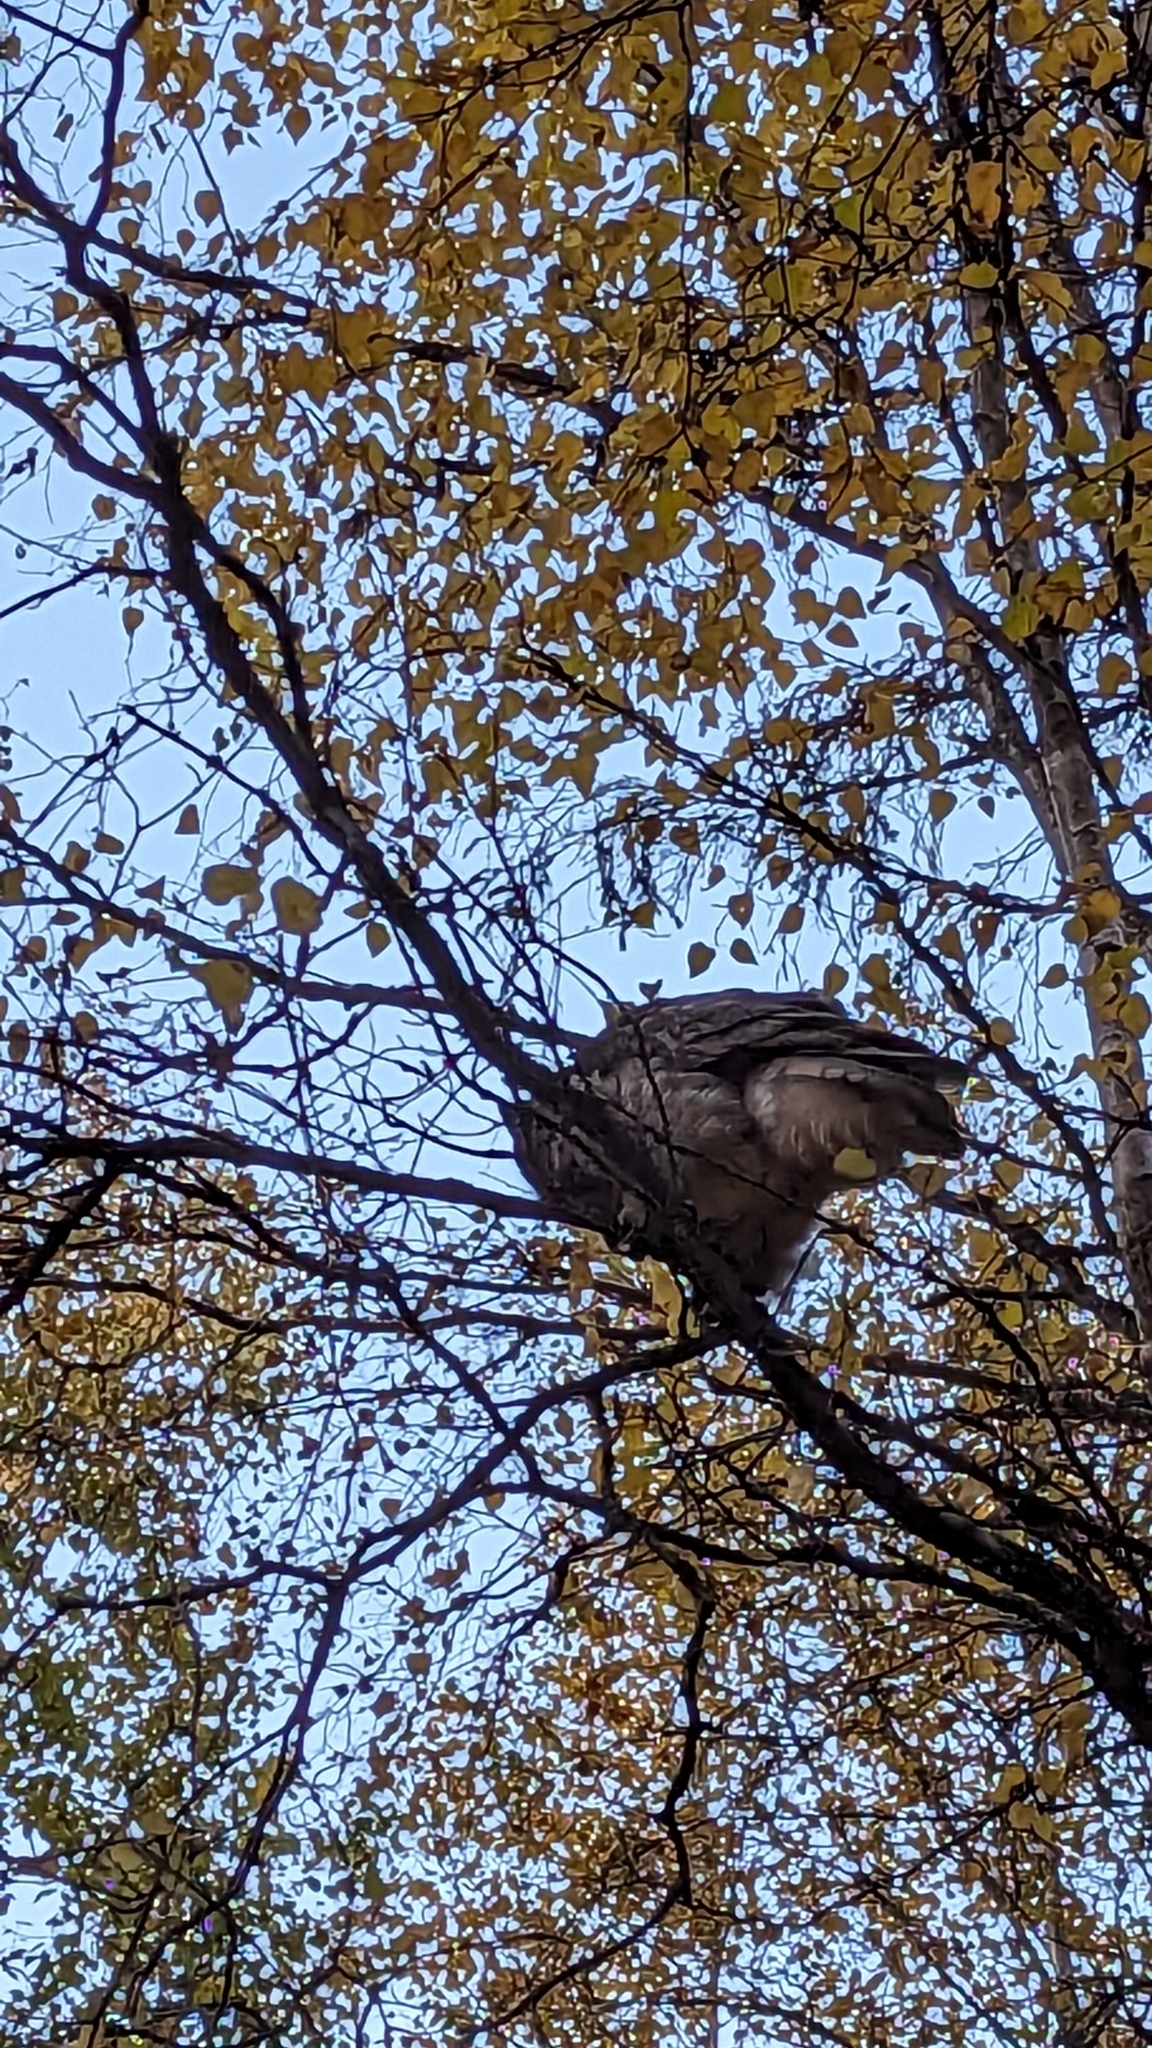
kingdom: Animalia
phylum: Chordata
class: Aves
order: Strigiformes
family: Strigidae
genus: Bubo
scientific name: Bubo virginianus
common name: Great horned owl
